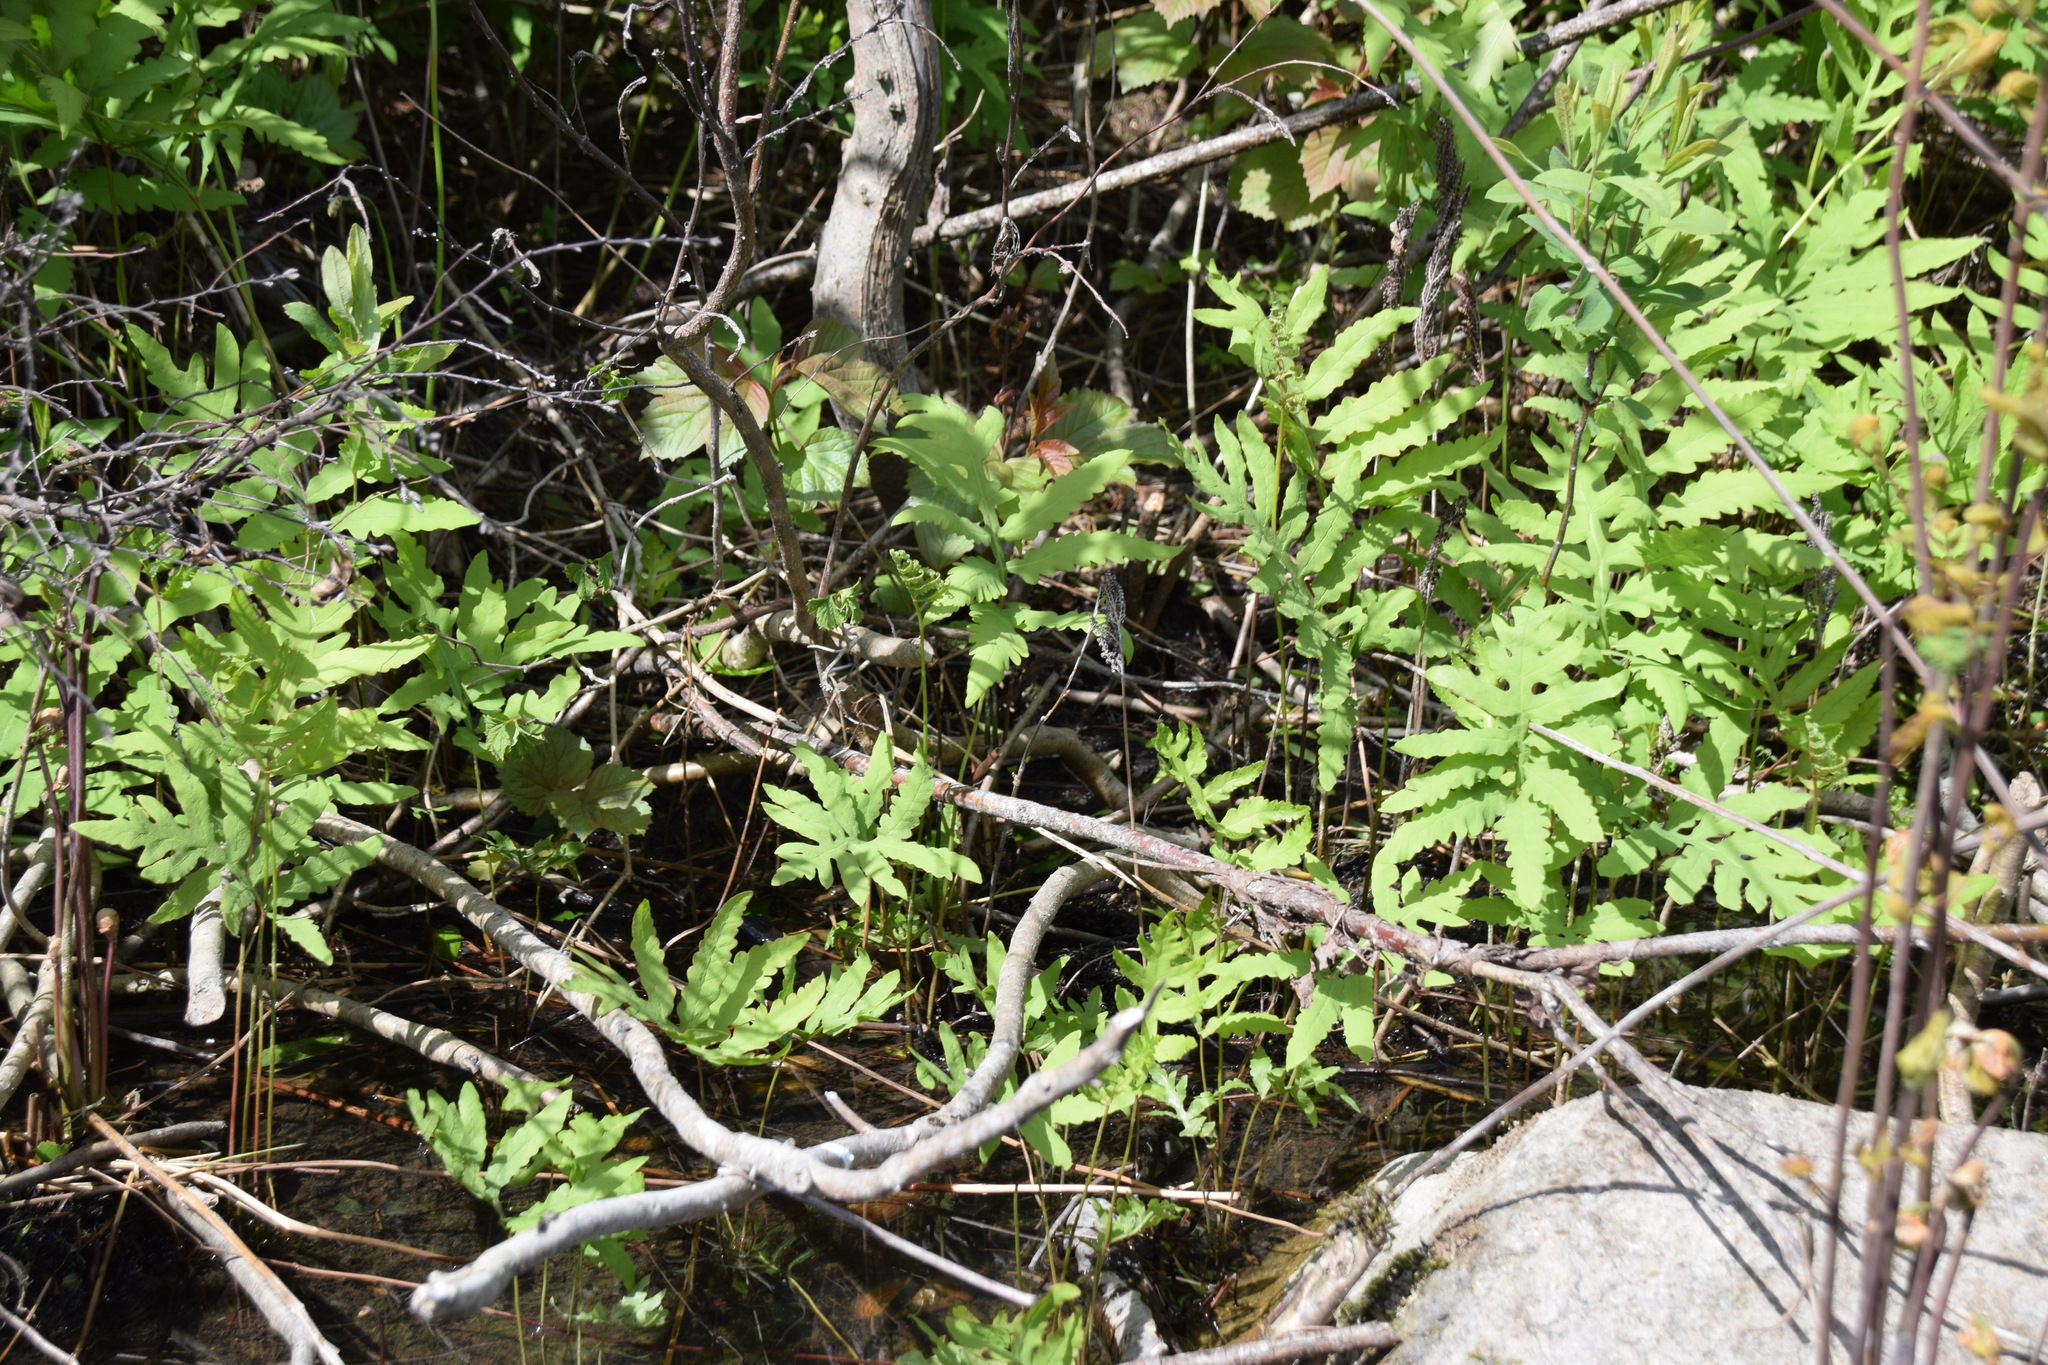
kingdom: Plantae
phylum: Tracheophyta
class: Polypodiopsida
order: Polypodiales
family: Onocleaceae
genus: Onoclea
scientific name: Onoclea sensibilis
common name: Sensitive fern
